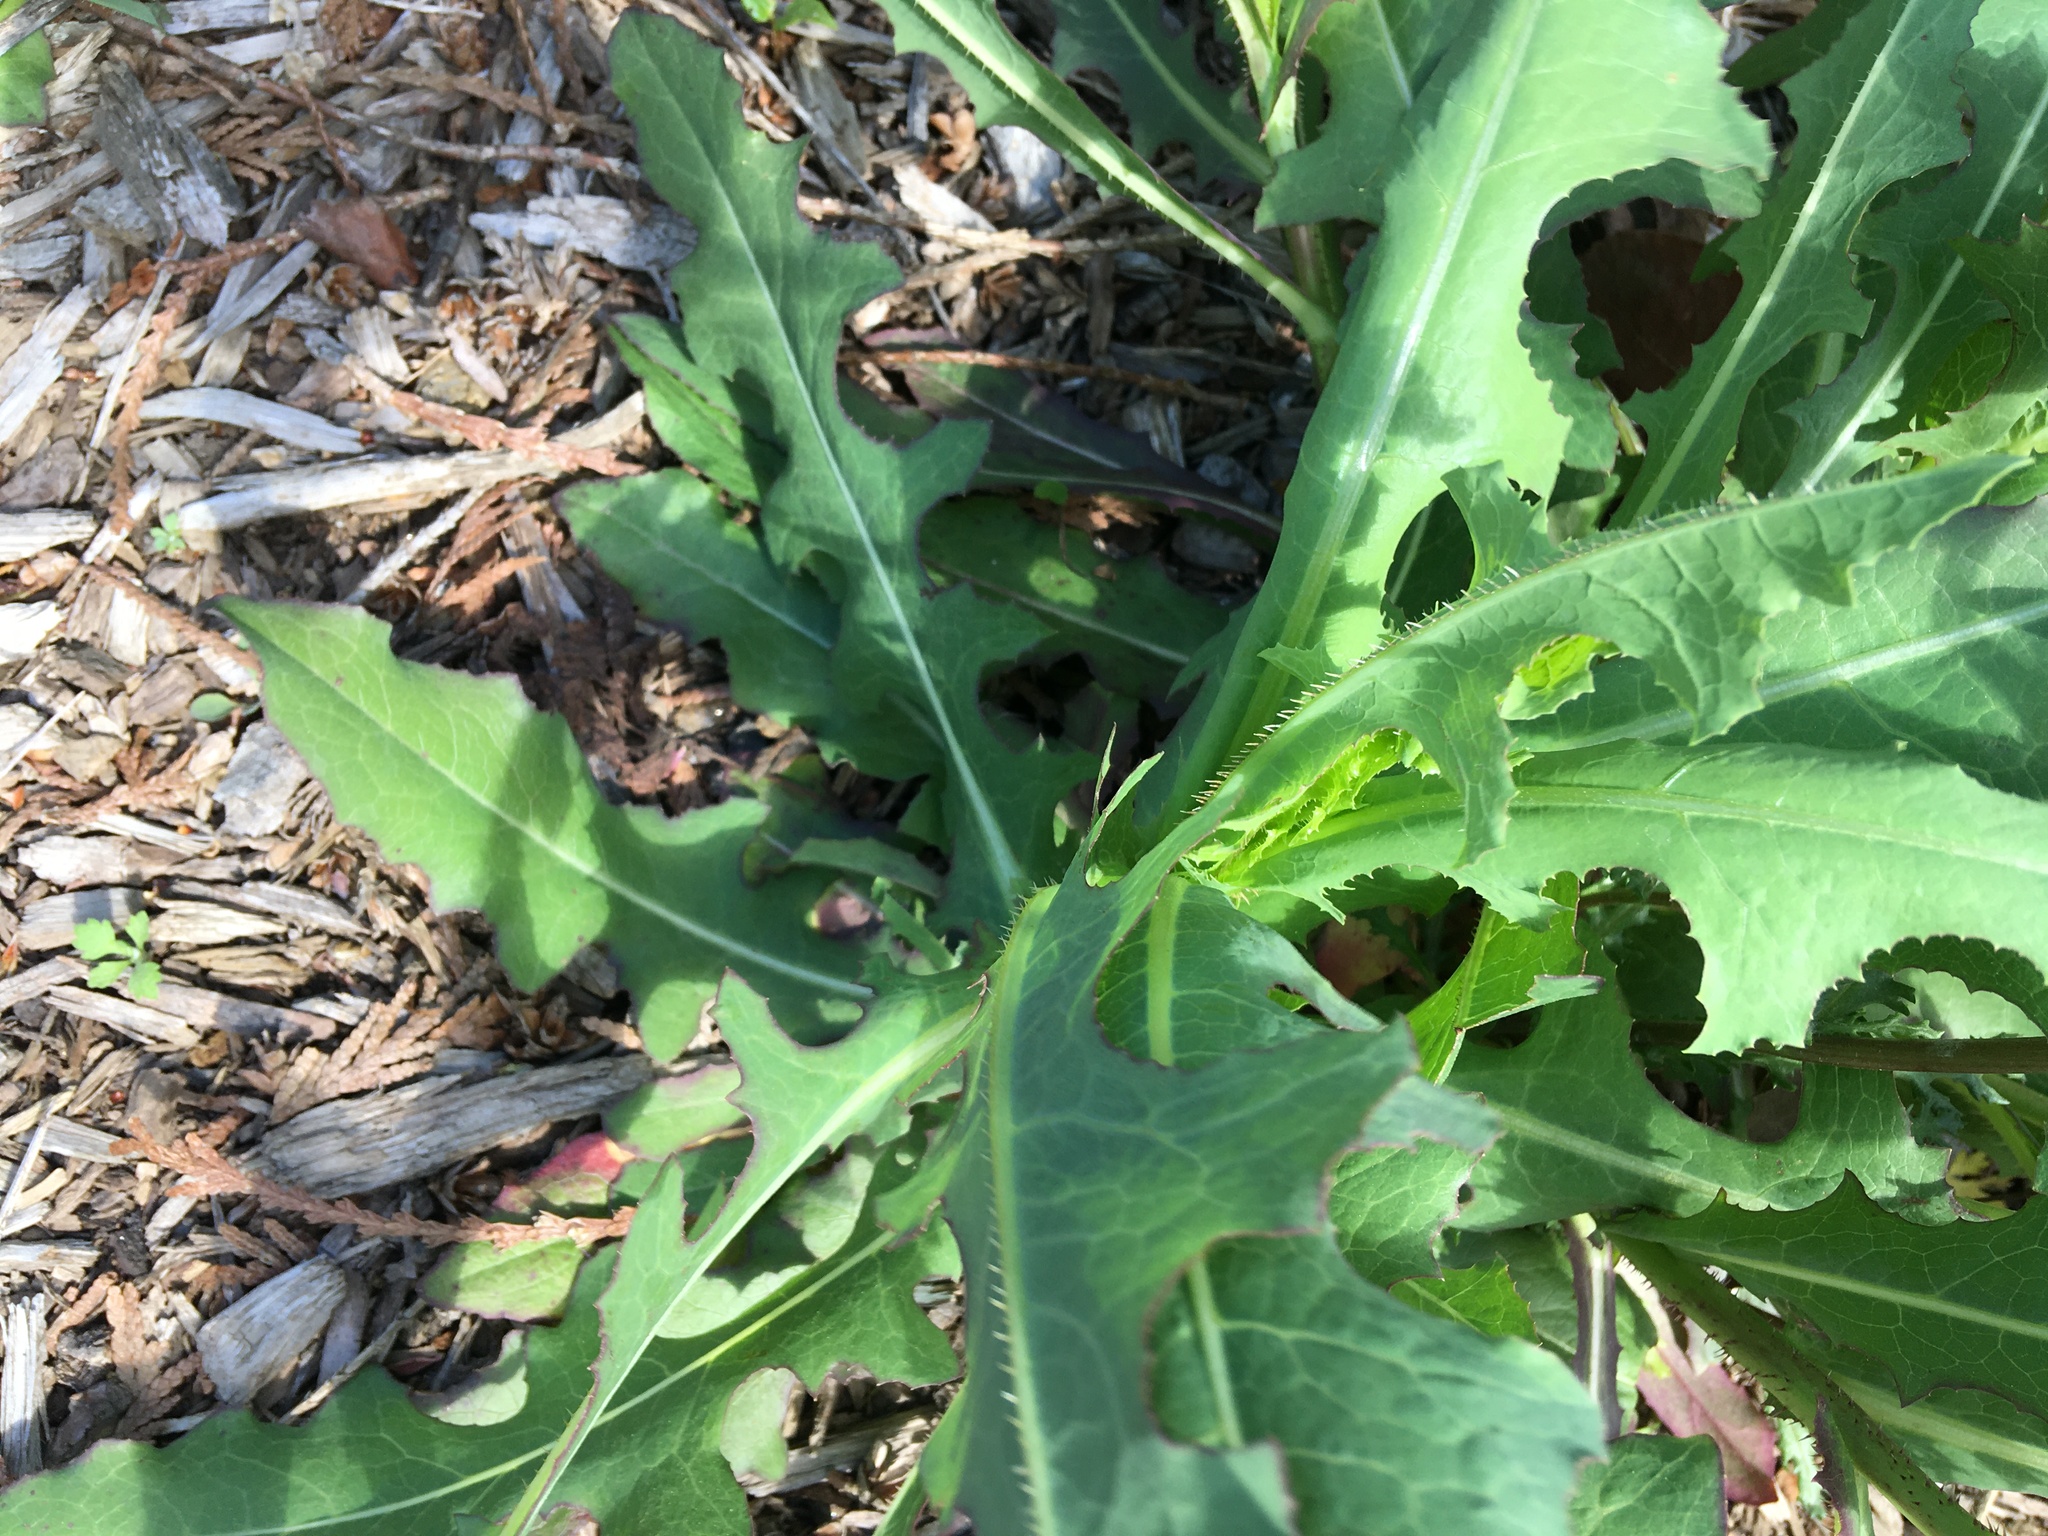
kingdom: Plantae
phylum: Tracheophyta
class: Magnoliopsida
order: Asterales
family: Asteraceae
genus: Lactuca
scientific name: Lactuca serriola
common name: Prickly lettuce
